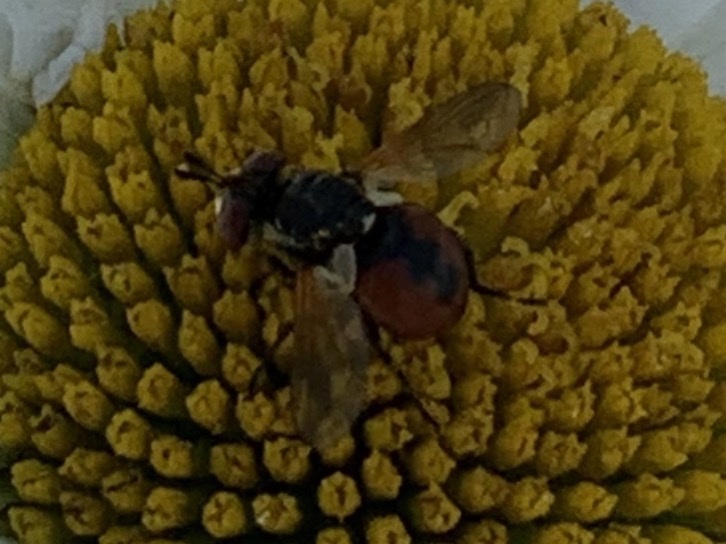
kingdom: Animalia
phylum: Arthropoda
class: Insecta
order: Diptera
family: Tachinidae
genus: Gymnosoma
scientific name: Gymnosoma
